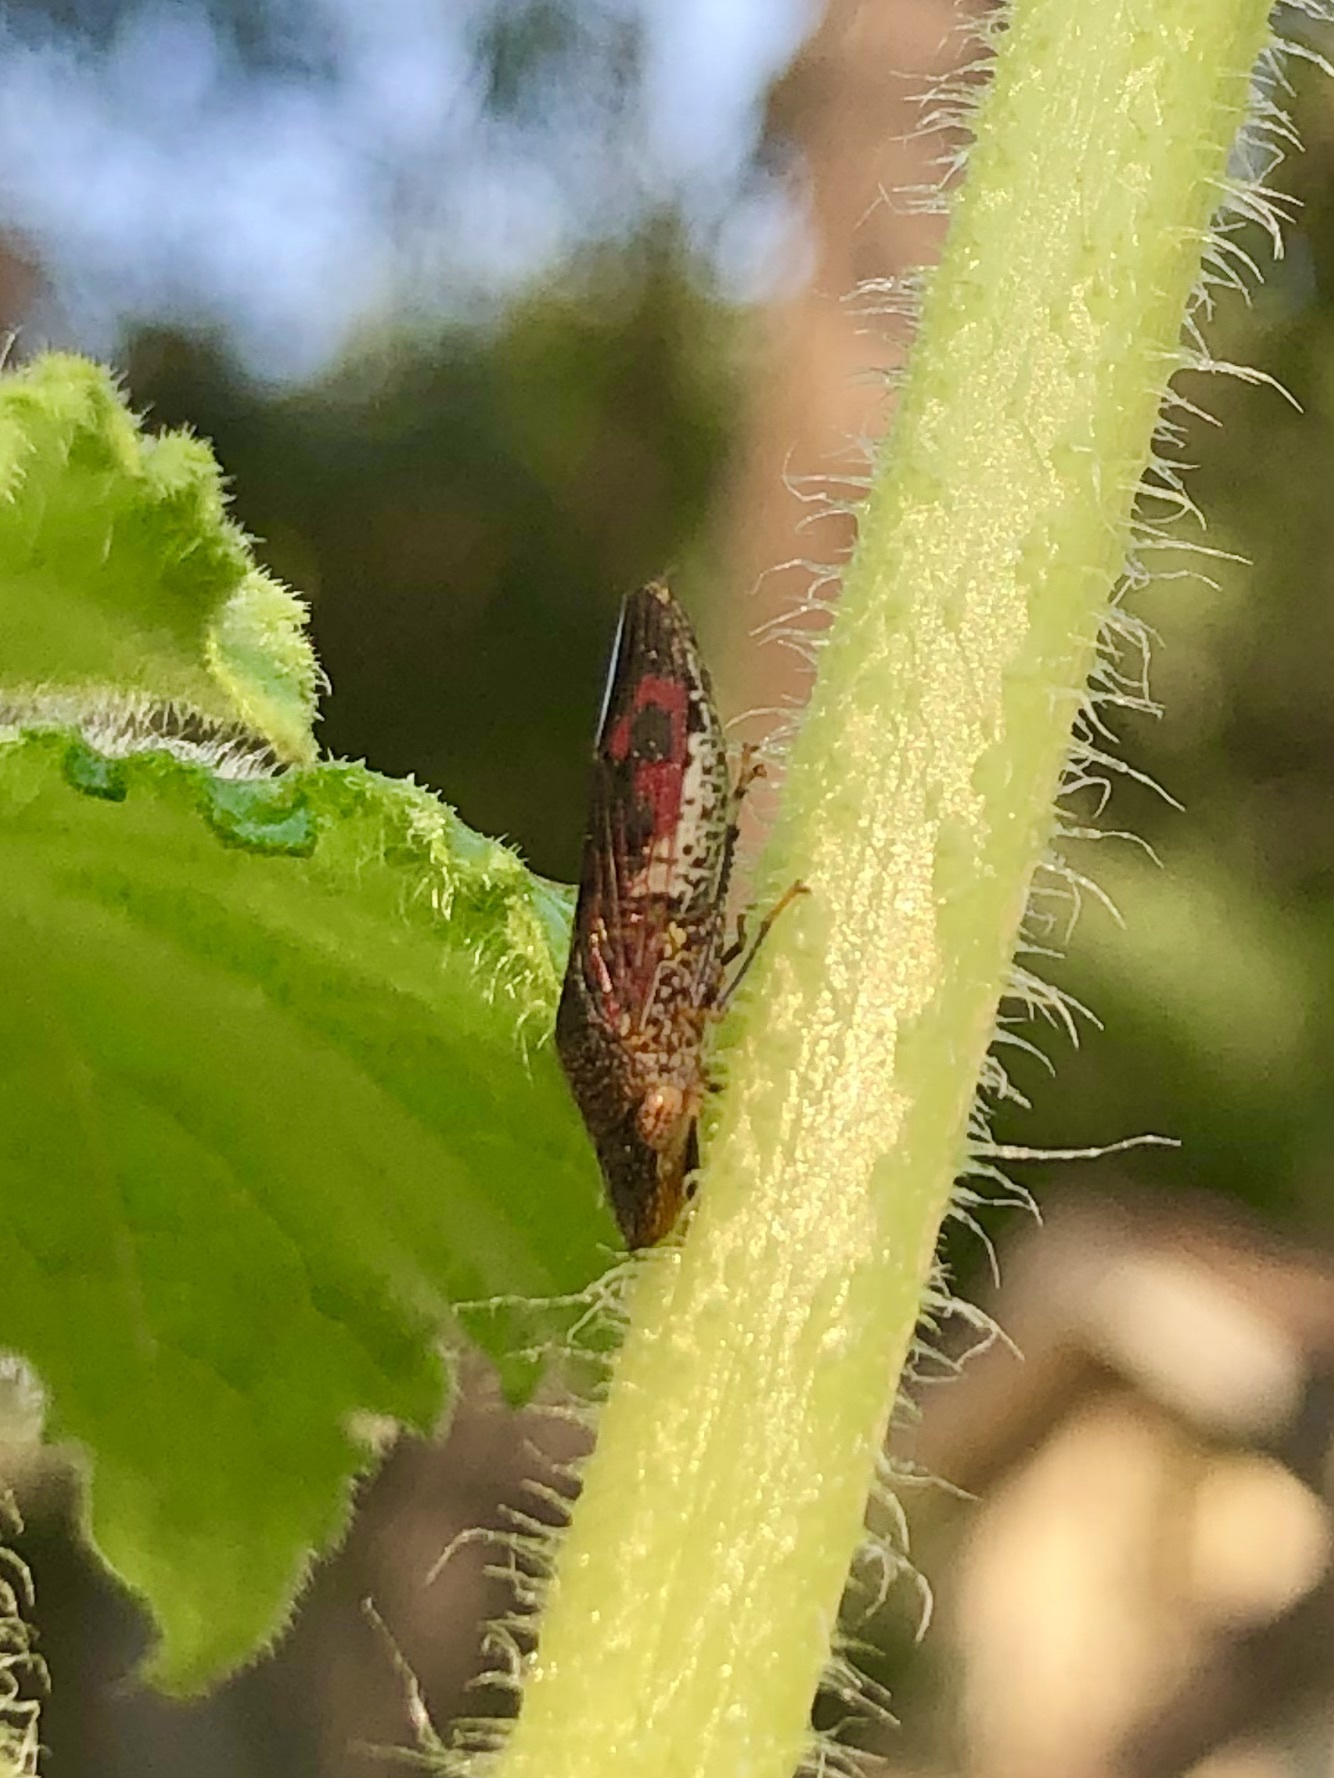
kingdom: Animalia
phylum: Arthropoda
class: Insecta
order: Hemiptera
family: Cicadellidae
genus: Homalodisca
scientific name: Homalodisca vitripennis
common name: Glassy-winged sharpshooter
